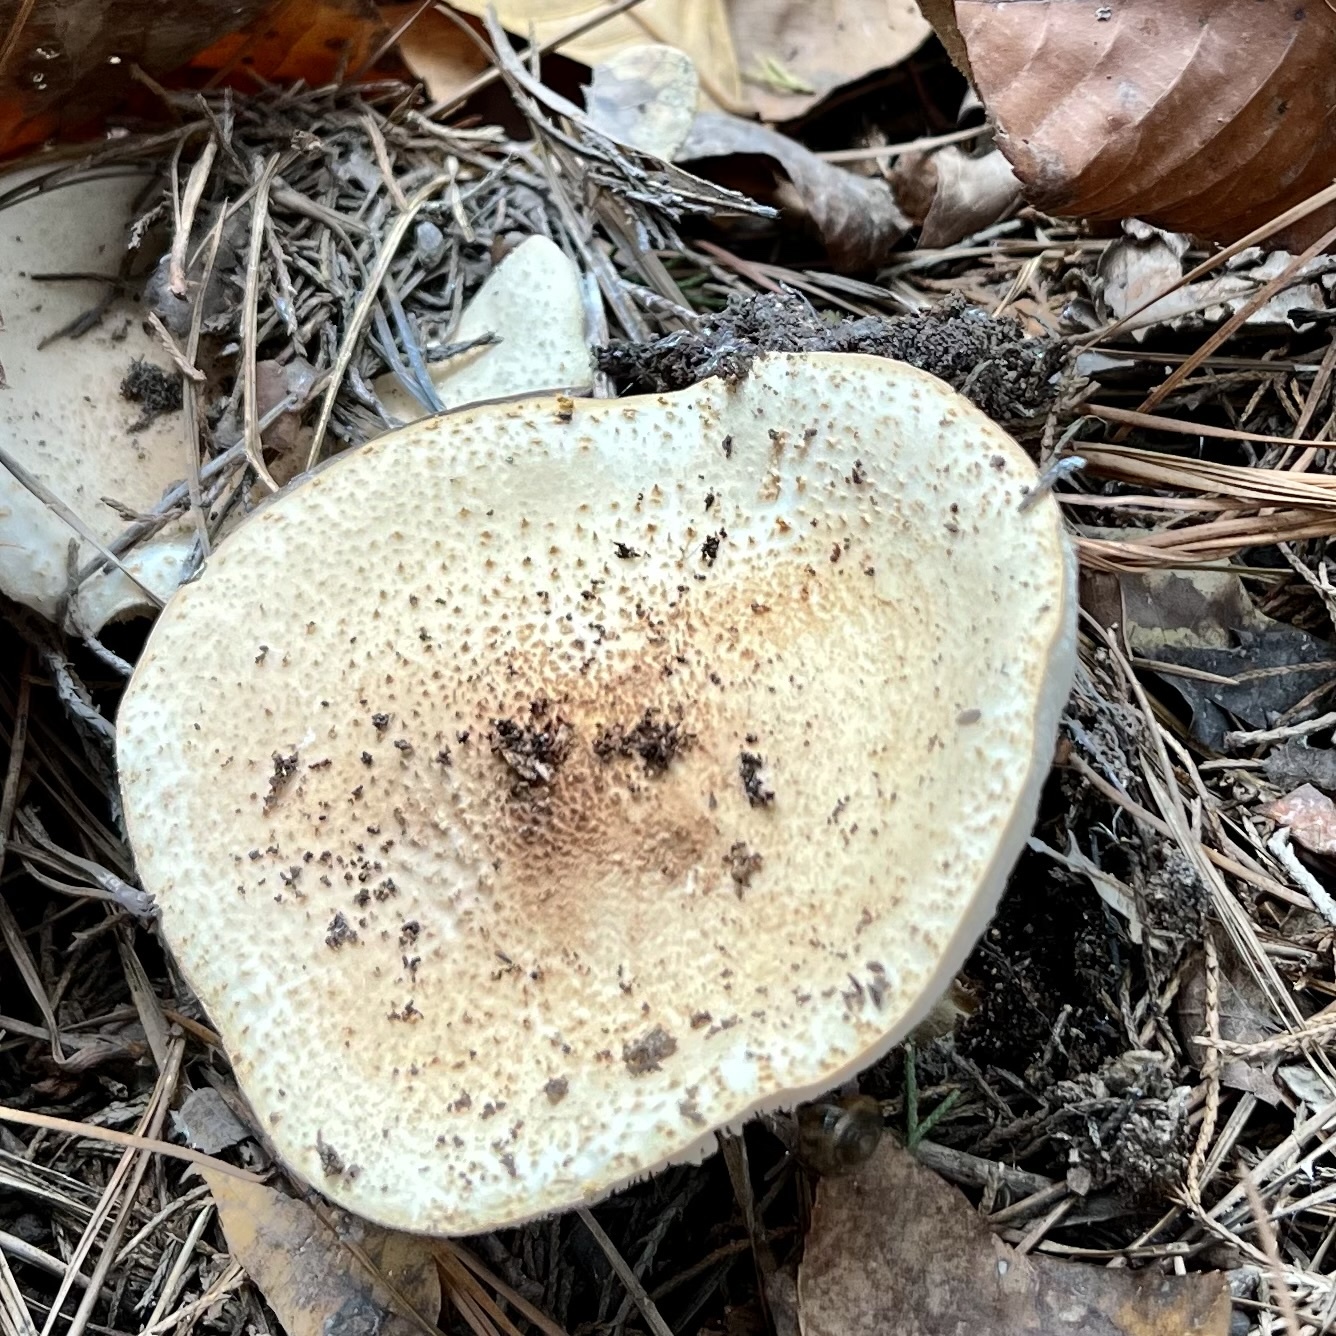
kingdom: Fungi
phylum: Basidiomycota
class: Agaricomycetes
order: Agaricales
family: Agaricaceae
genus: Echinoderma
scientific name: Echinoderma asperum
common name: Freckled dapperling
